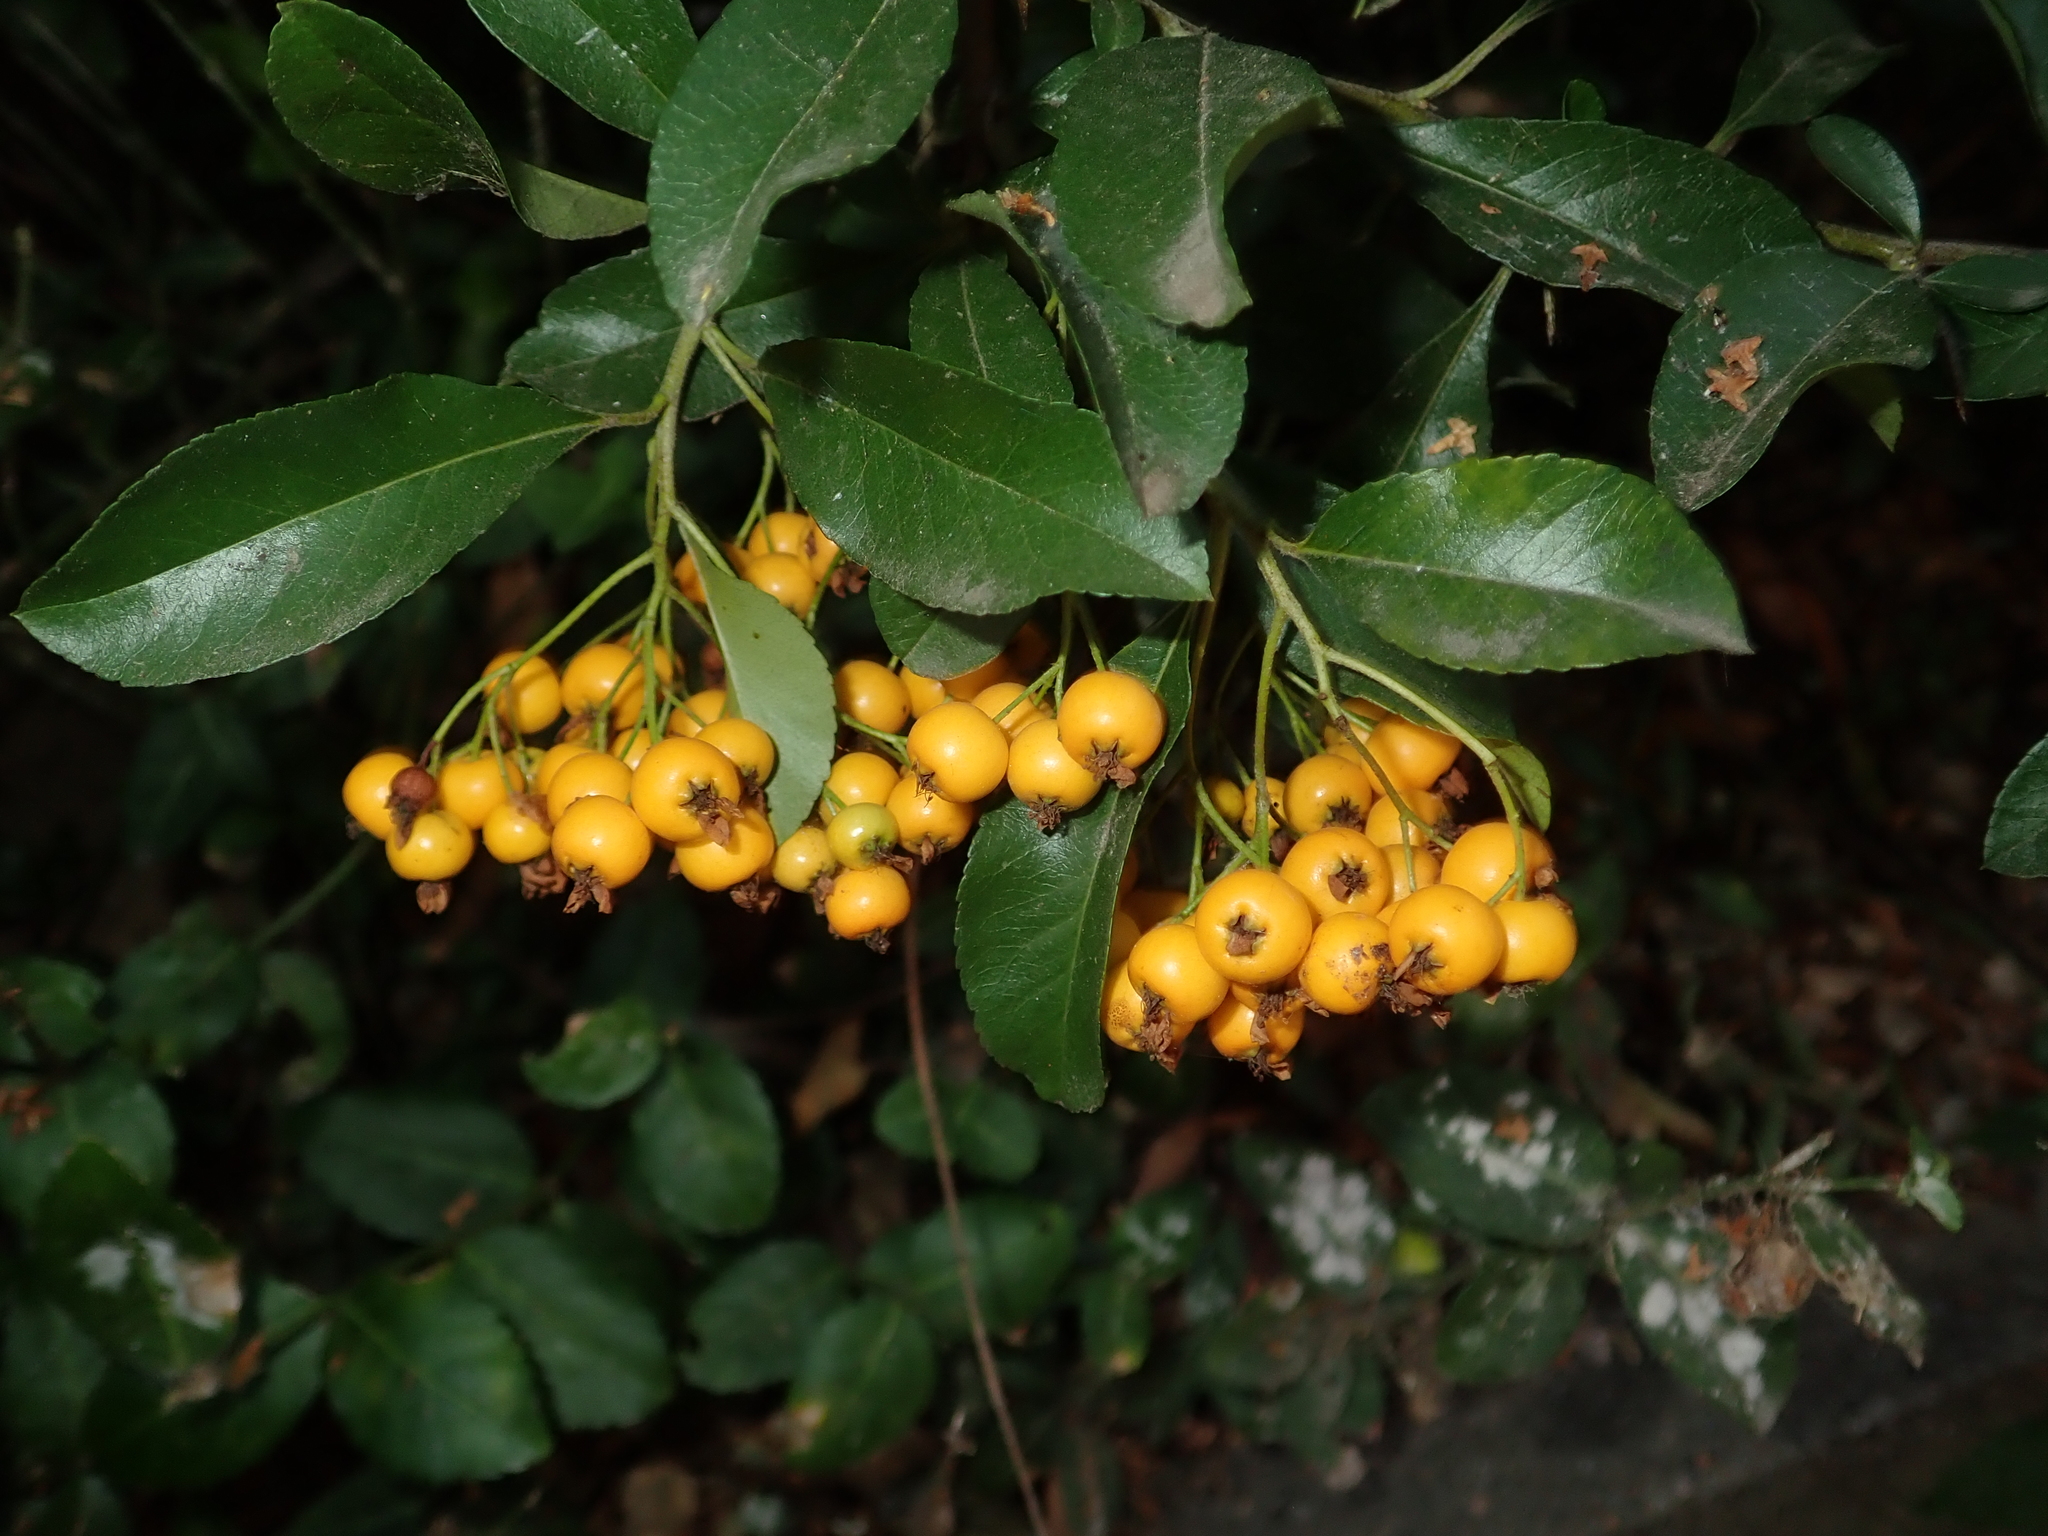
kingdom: Plantae
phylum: Tracheophyta
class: Magnoliopsida
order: Rosales
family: Rosaceae
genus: Pyracantha
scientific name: Pyracantha coccinea
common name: Firethorn
